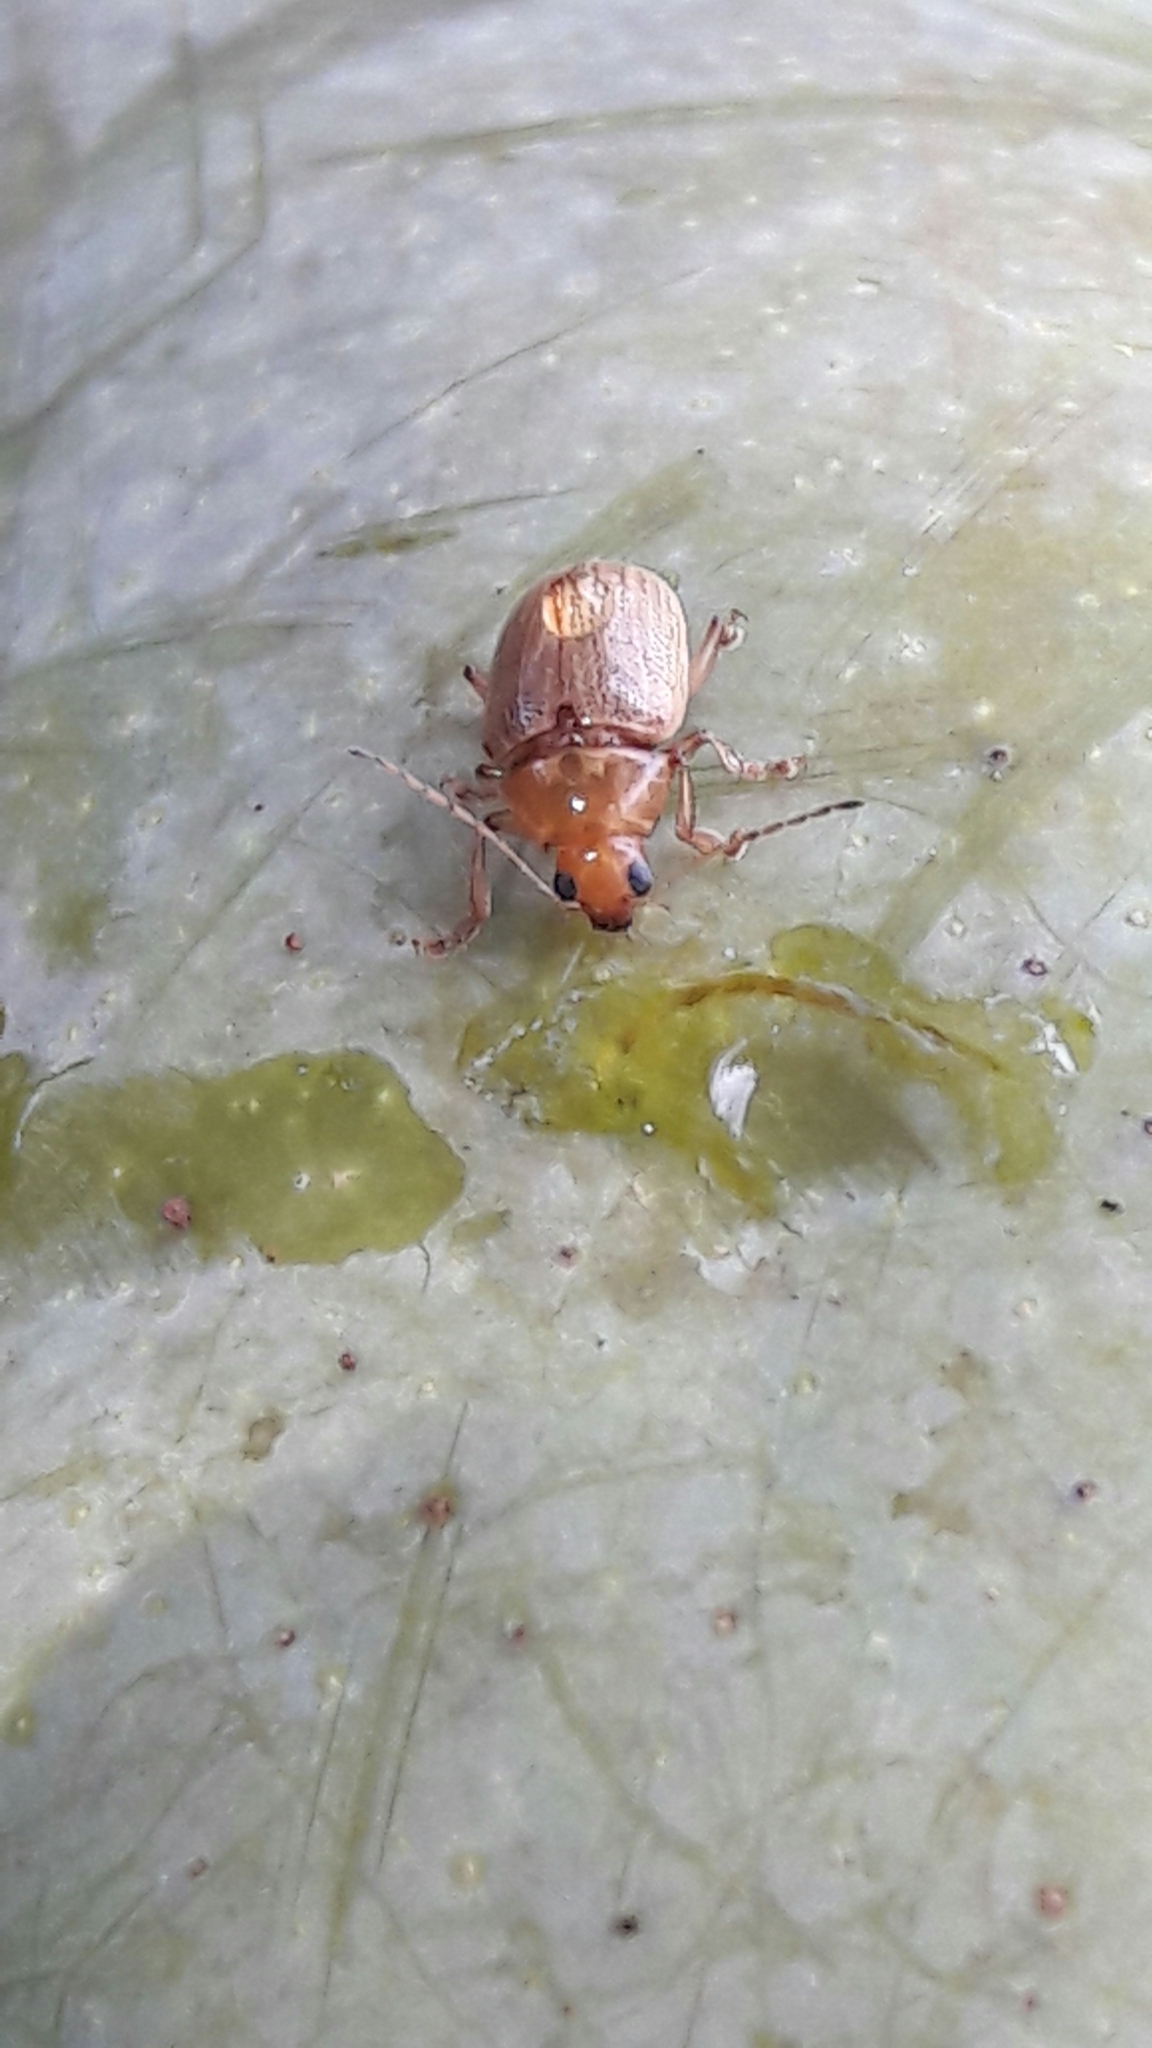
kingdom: Animalia
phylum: Arthropoda
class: Insecta
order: Coleoptera
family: Chrysomelidae
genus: Anisodera
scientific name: Anisodera ferruginea
